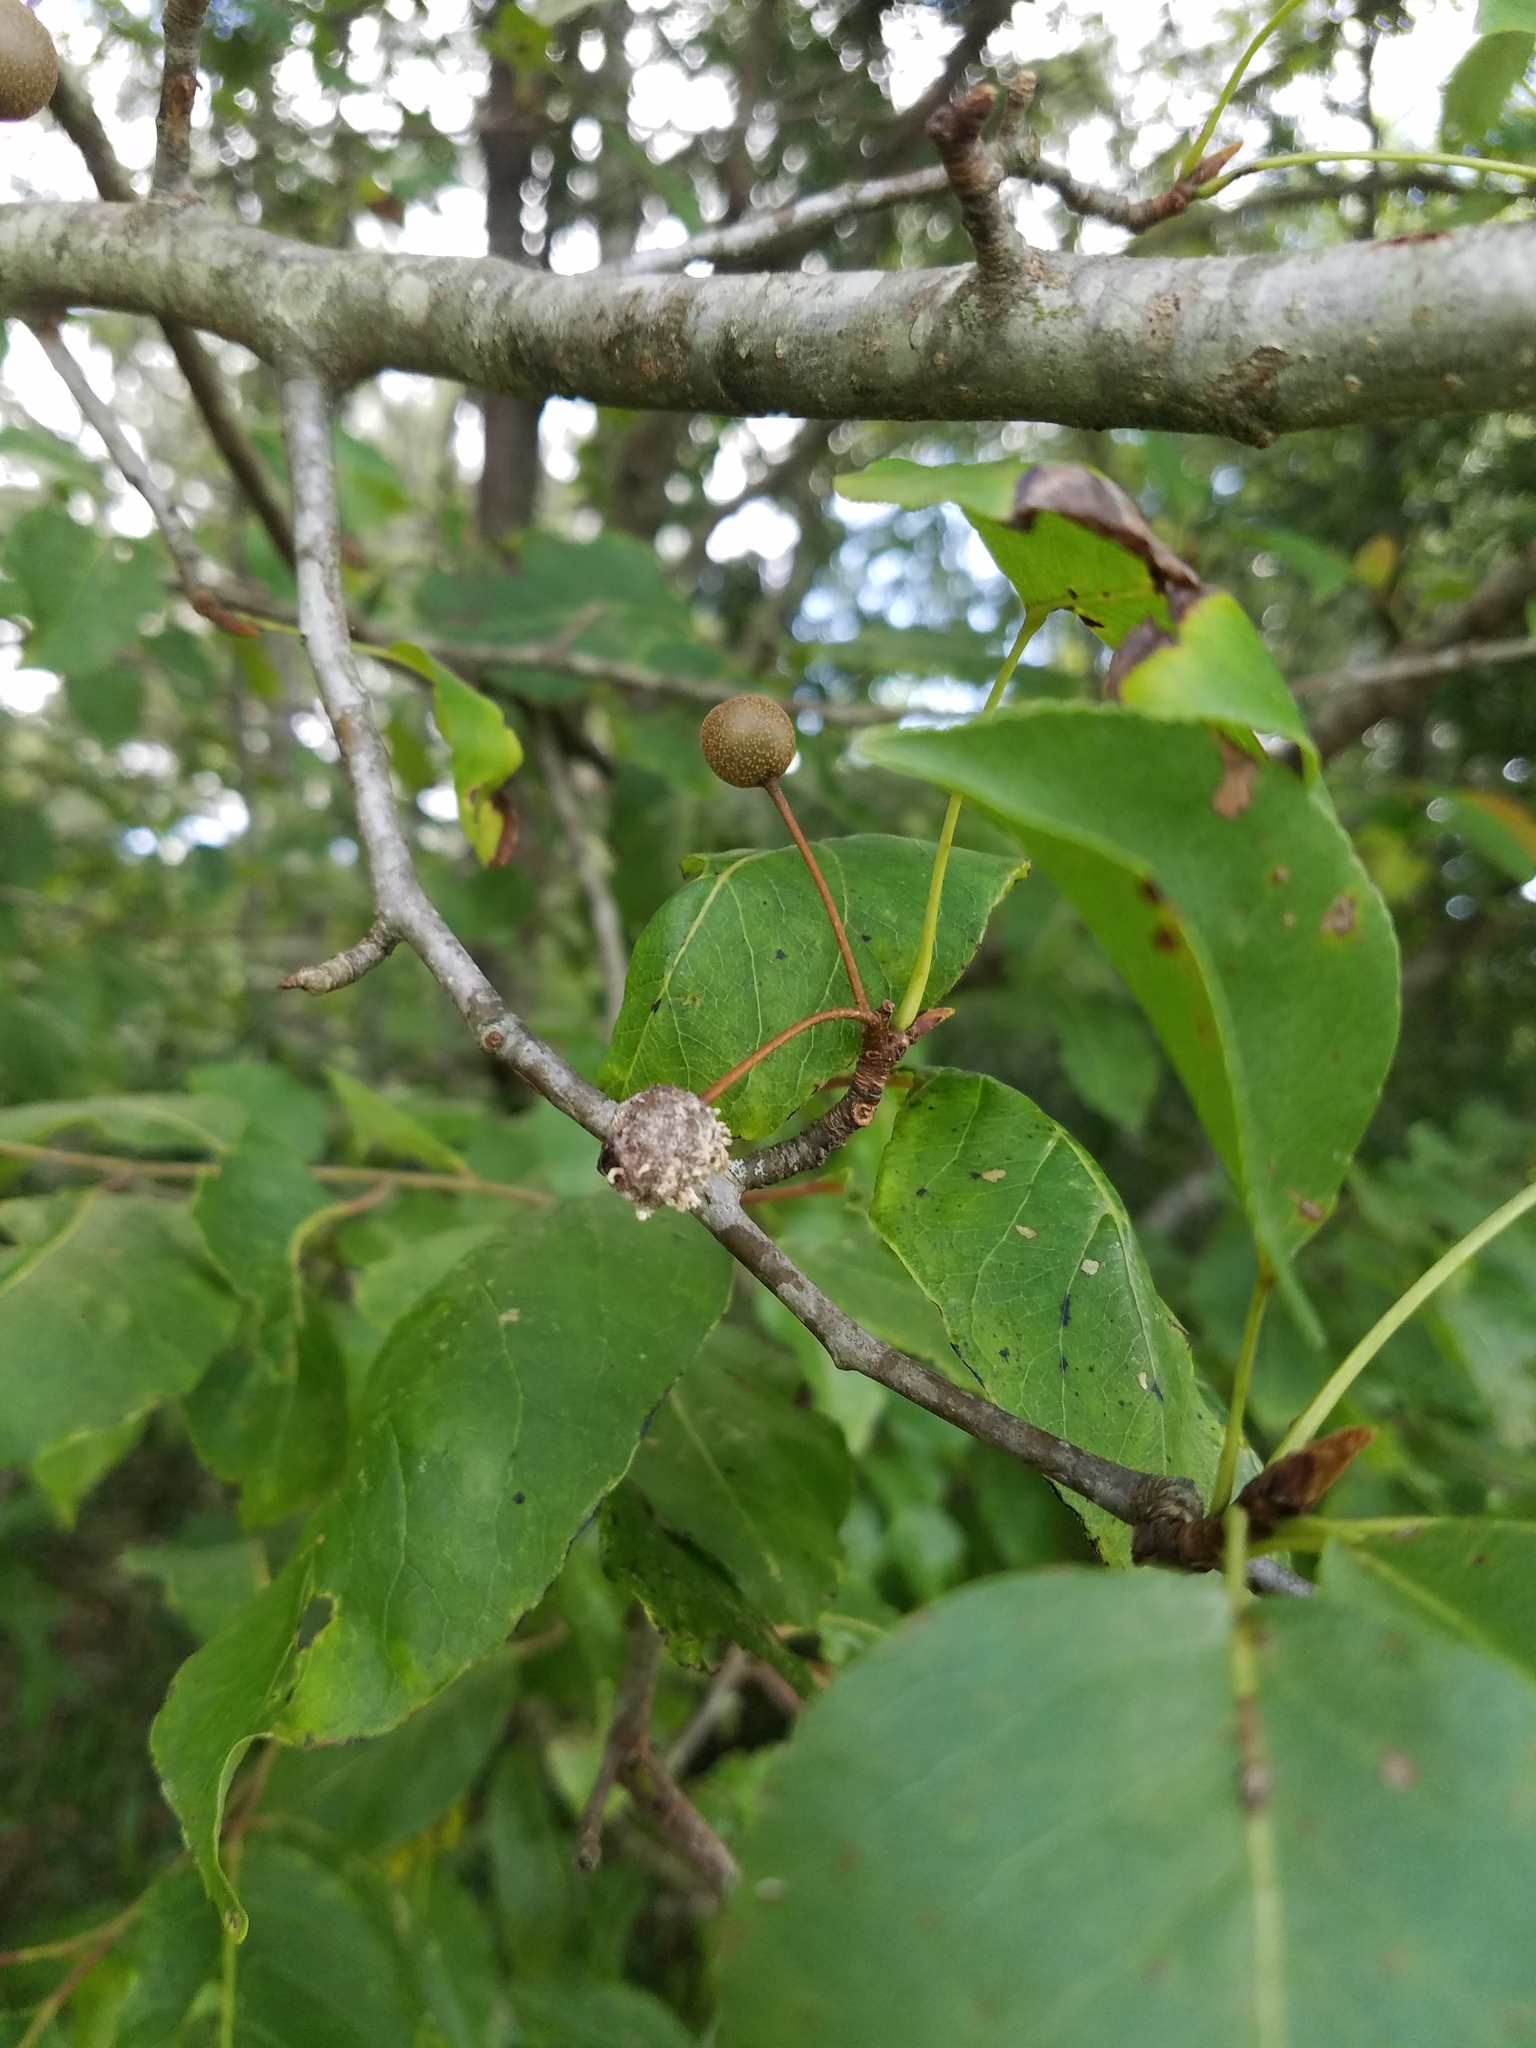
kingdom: Plantae
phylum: Tracheophyta
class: Magnoliopsida
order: Rosales
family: Rosaceae
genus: Pyrus
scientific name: Pyrus calleryana
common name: Callery pear
